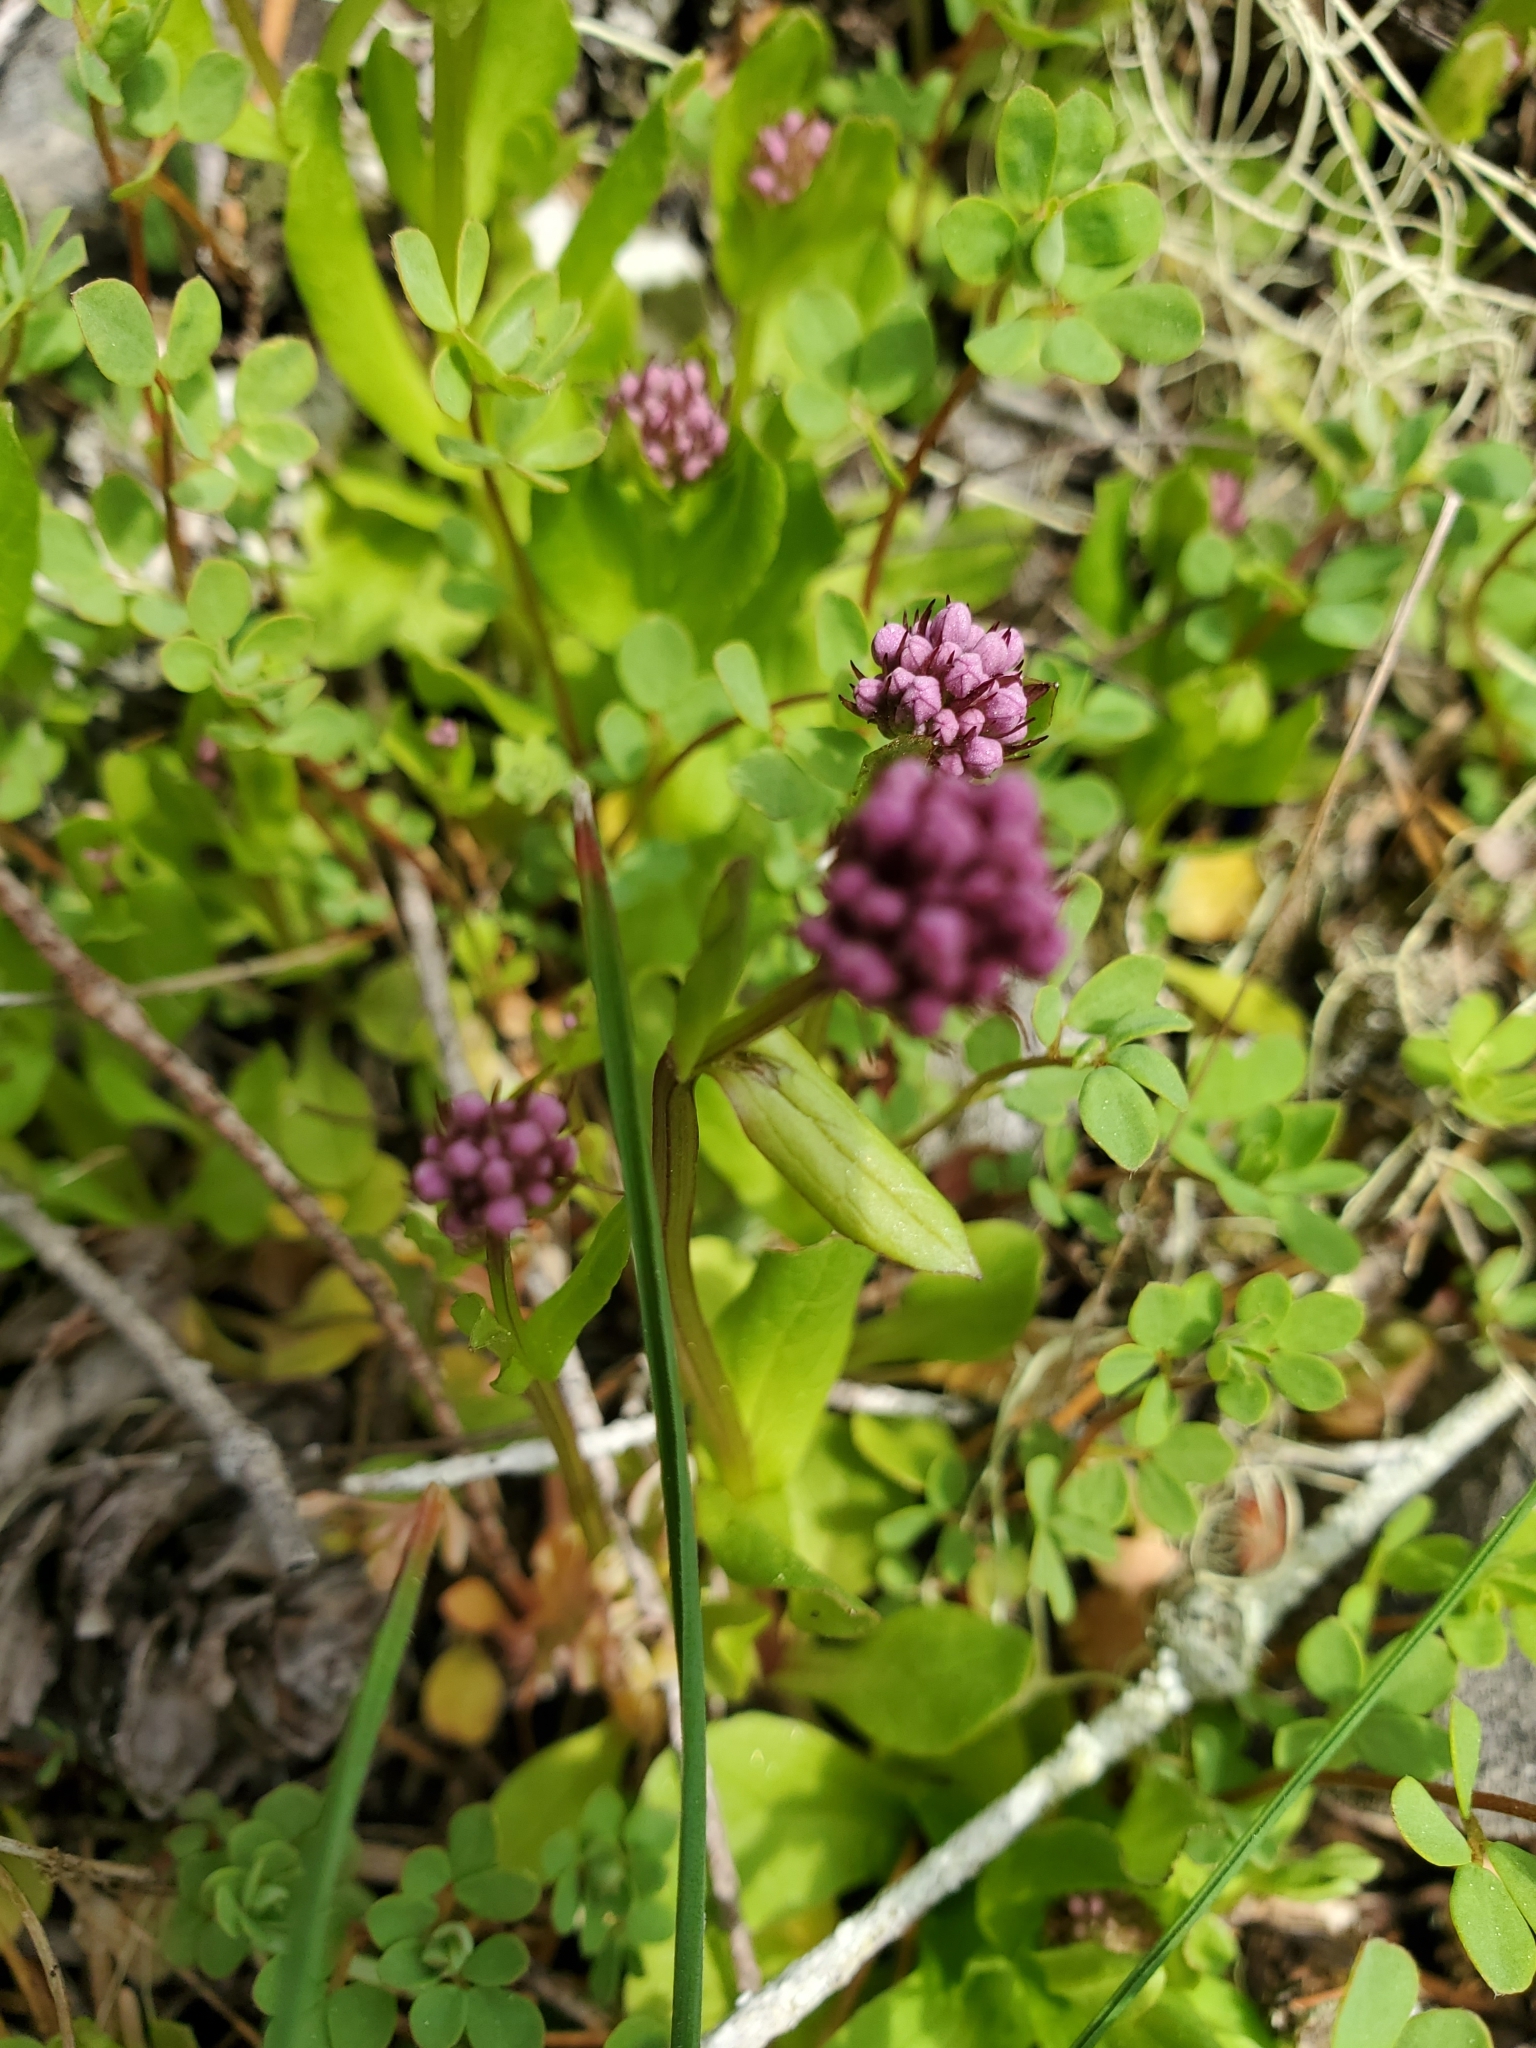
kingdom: Plantae
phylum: Tracheophyta
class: Magnoliopsida
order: Dipsacales
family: Caprifoliaceae
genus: Plectritis
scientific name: Plectritis congesta
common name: Pink plectritis
